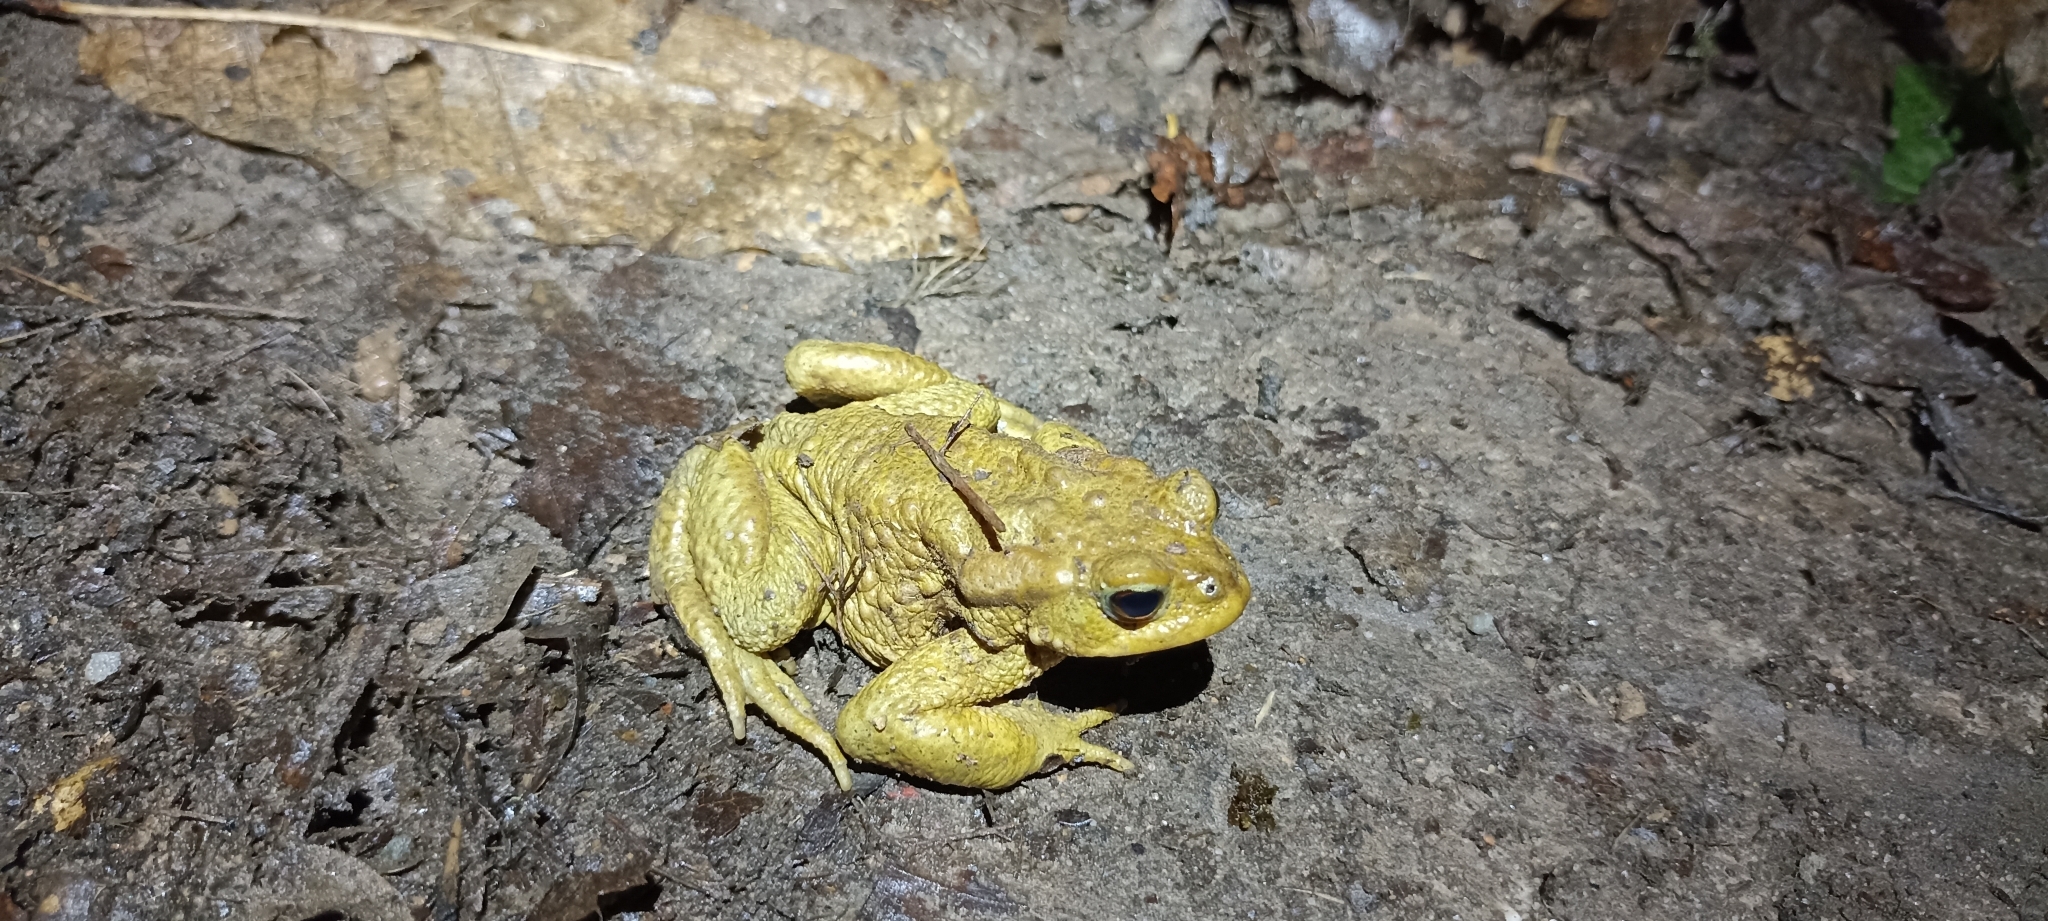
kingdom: Animalia
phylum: Chordata
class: Amphibia
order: Anura
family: Bufonidae
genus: Bufo
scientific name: Bufo spinosus
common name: Western common toad
